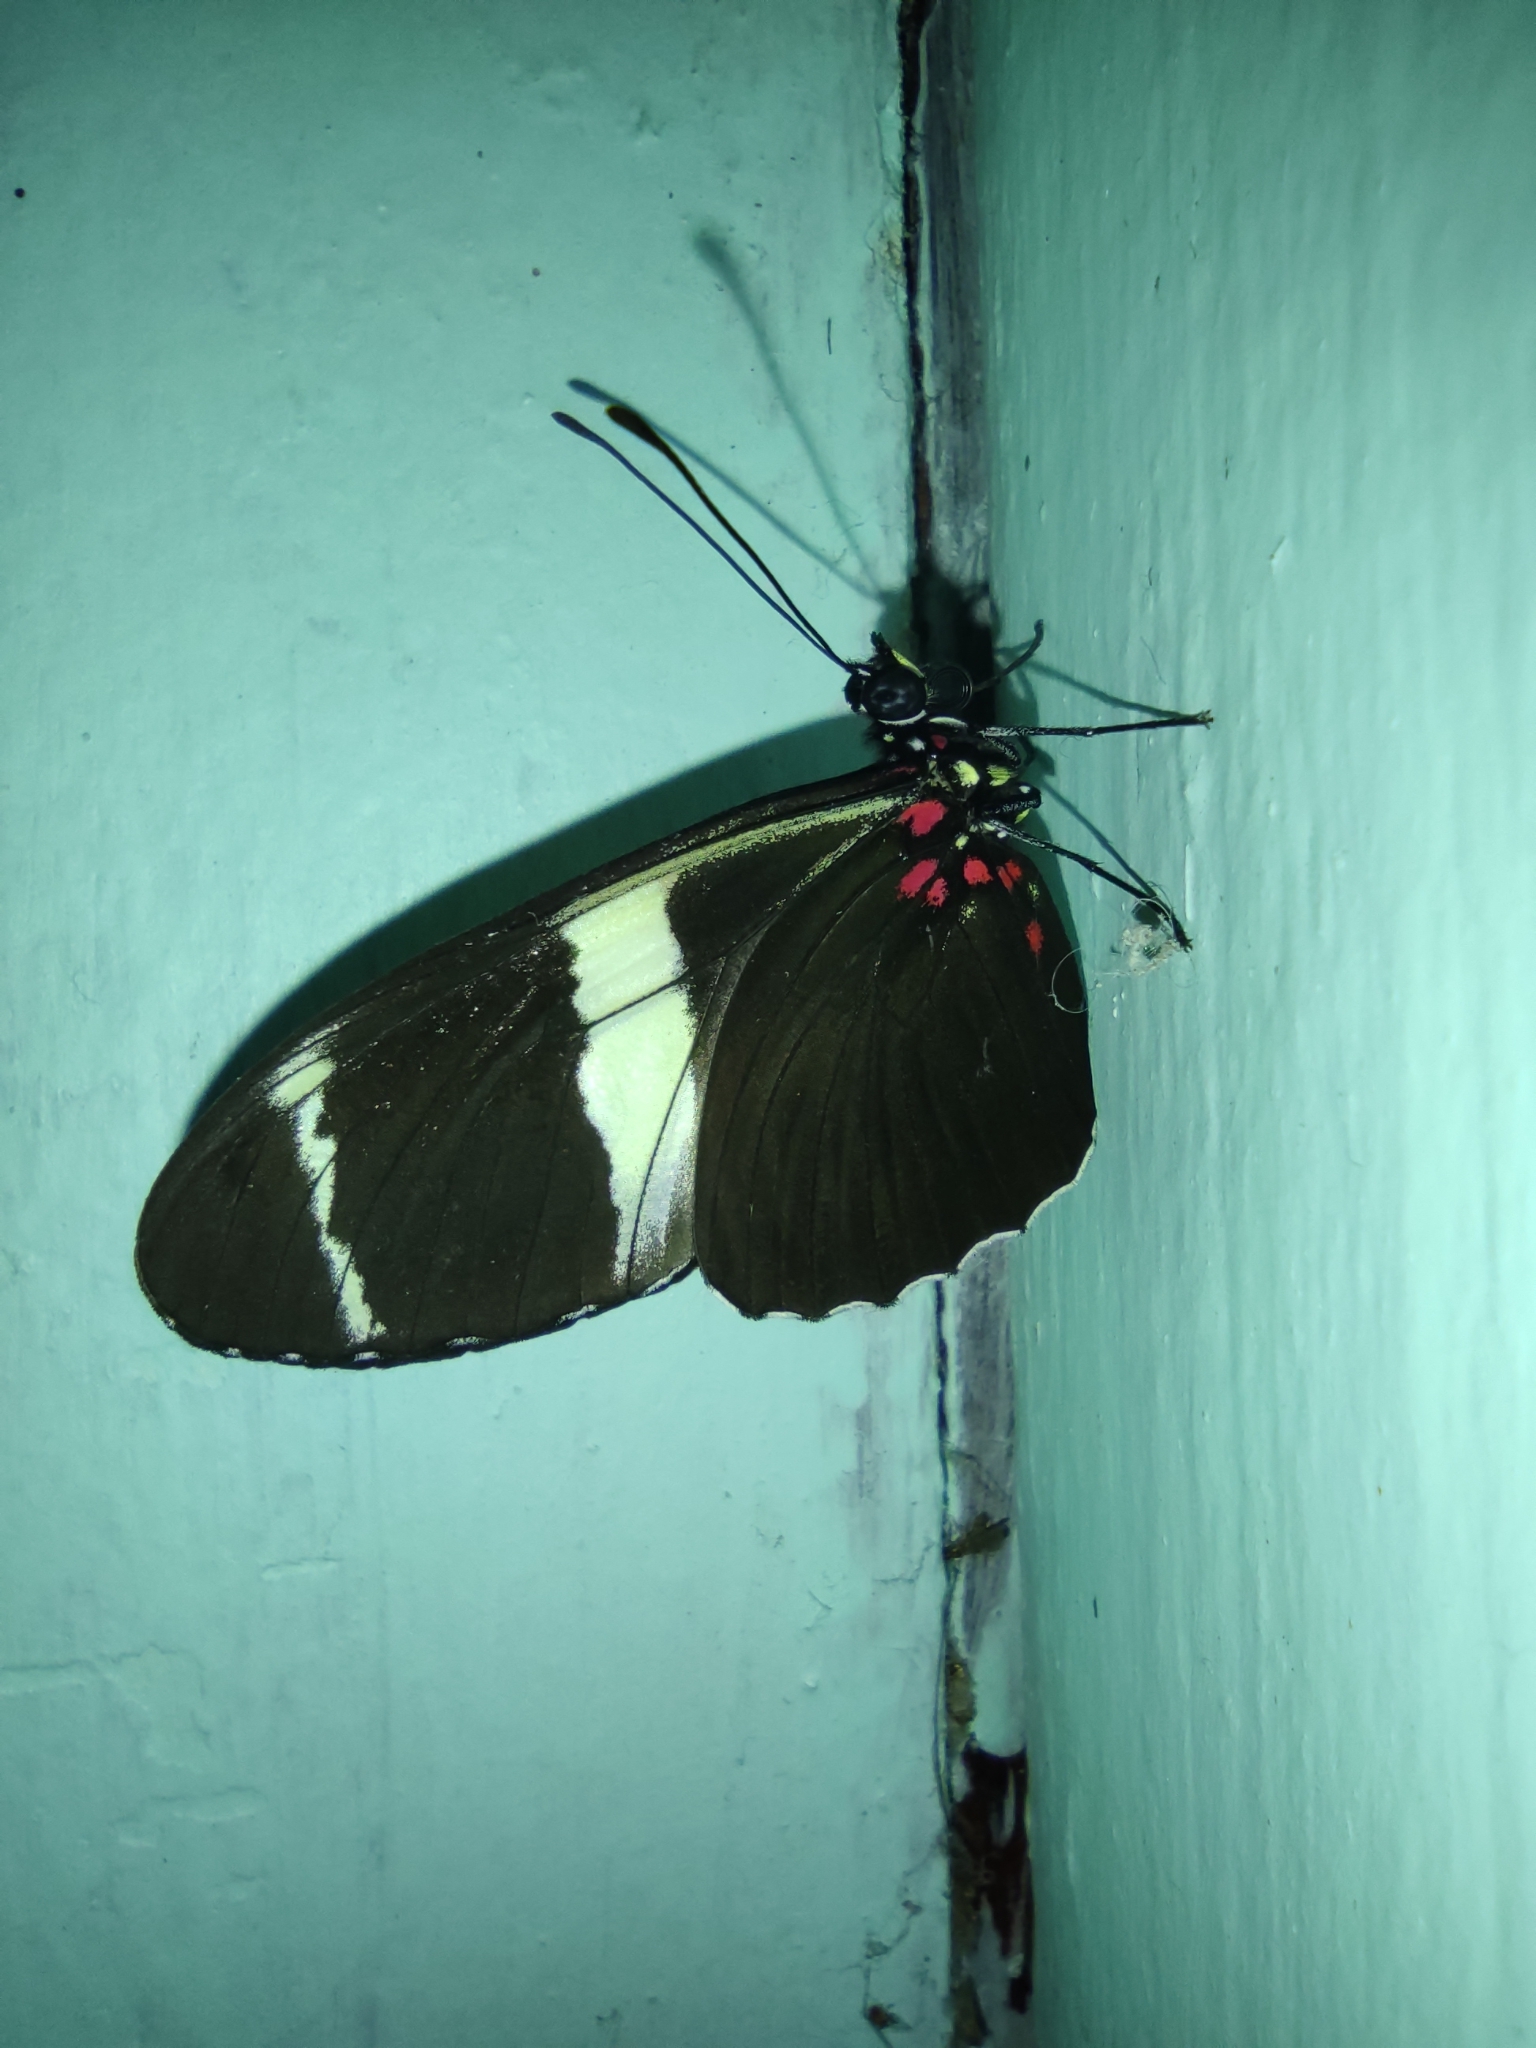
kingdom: Animalia
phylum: Arthropoda
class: Insecta
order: Lepidoptera
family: Nymphalidae
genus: Heliconius
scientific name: Heliconius sara
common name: Sara longwing
